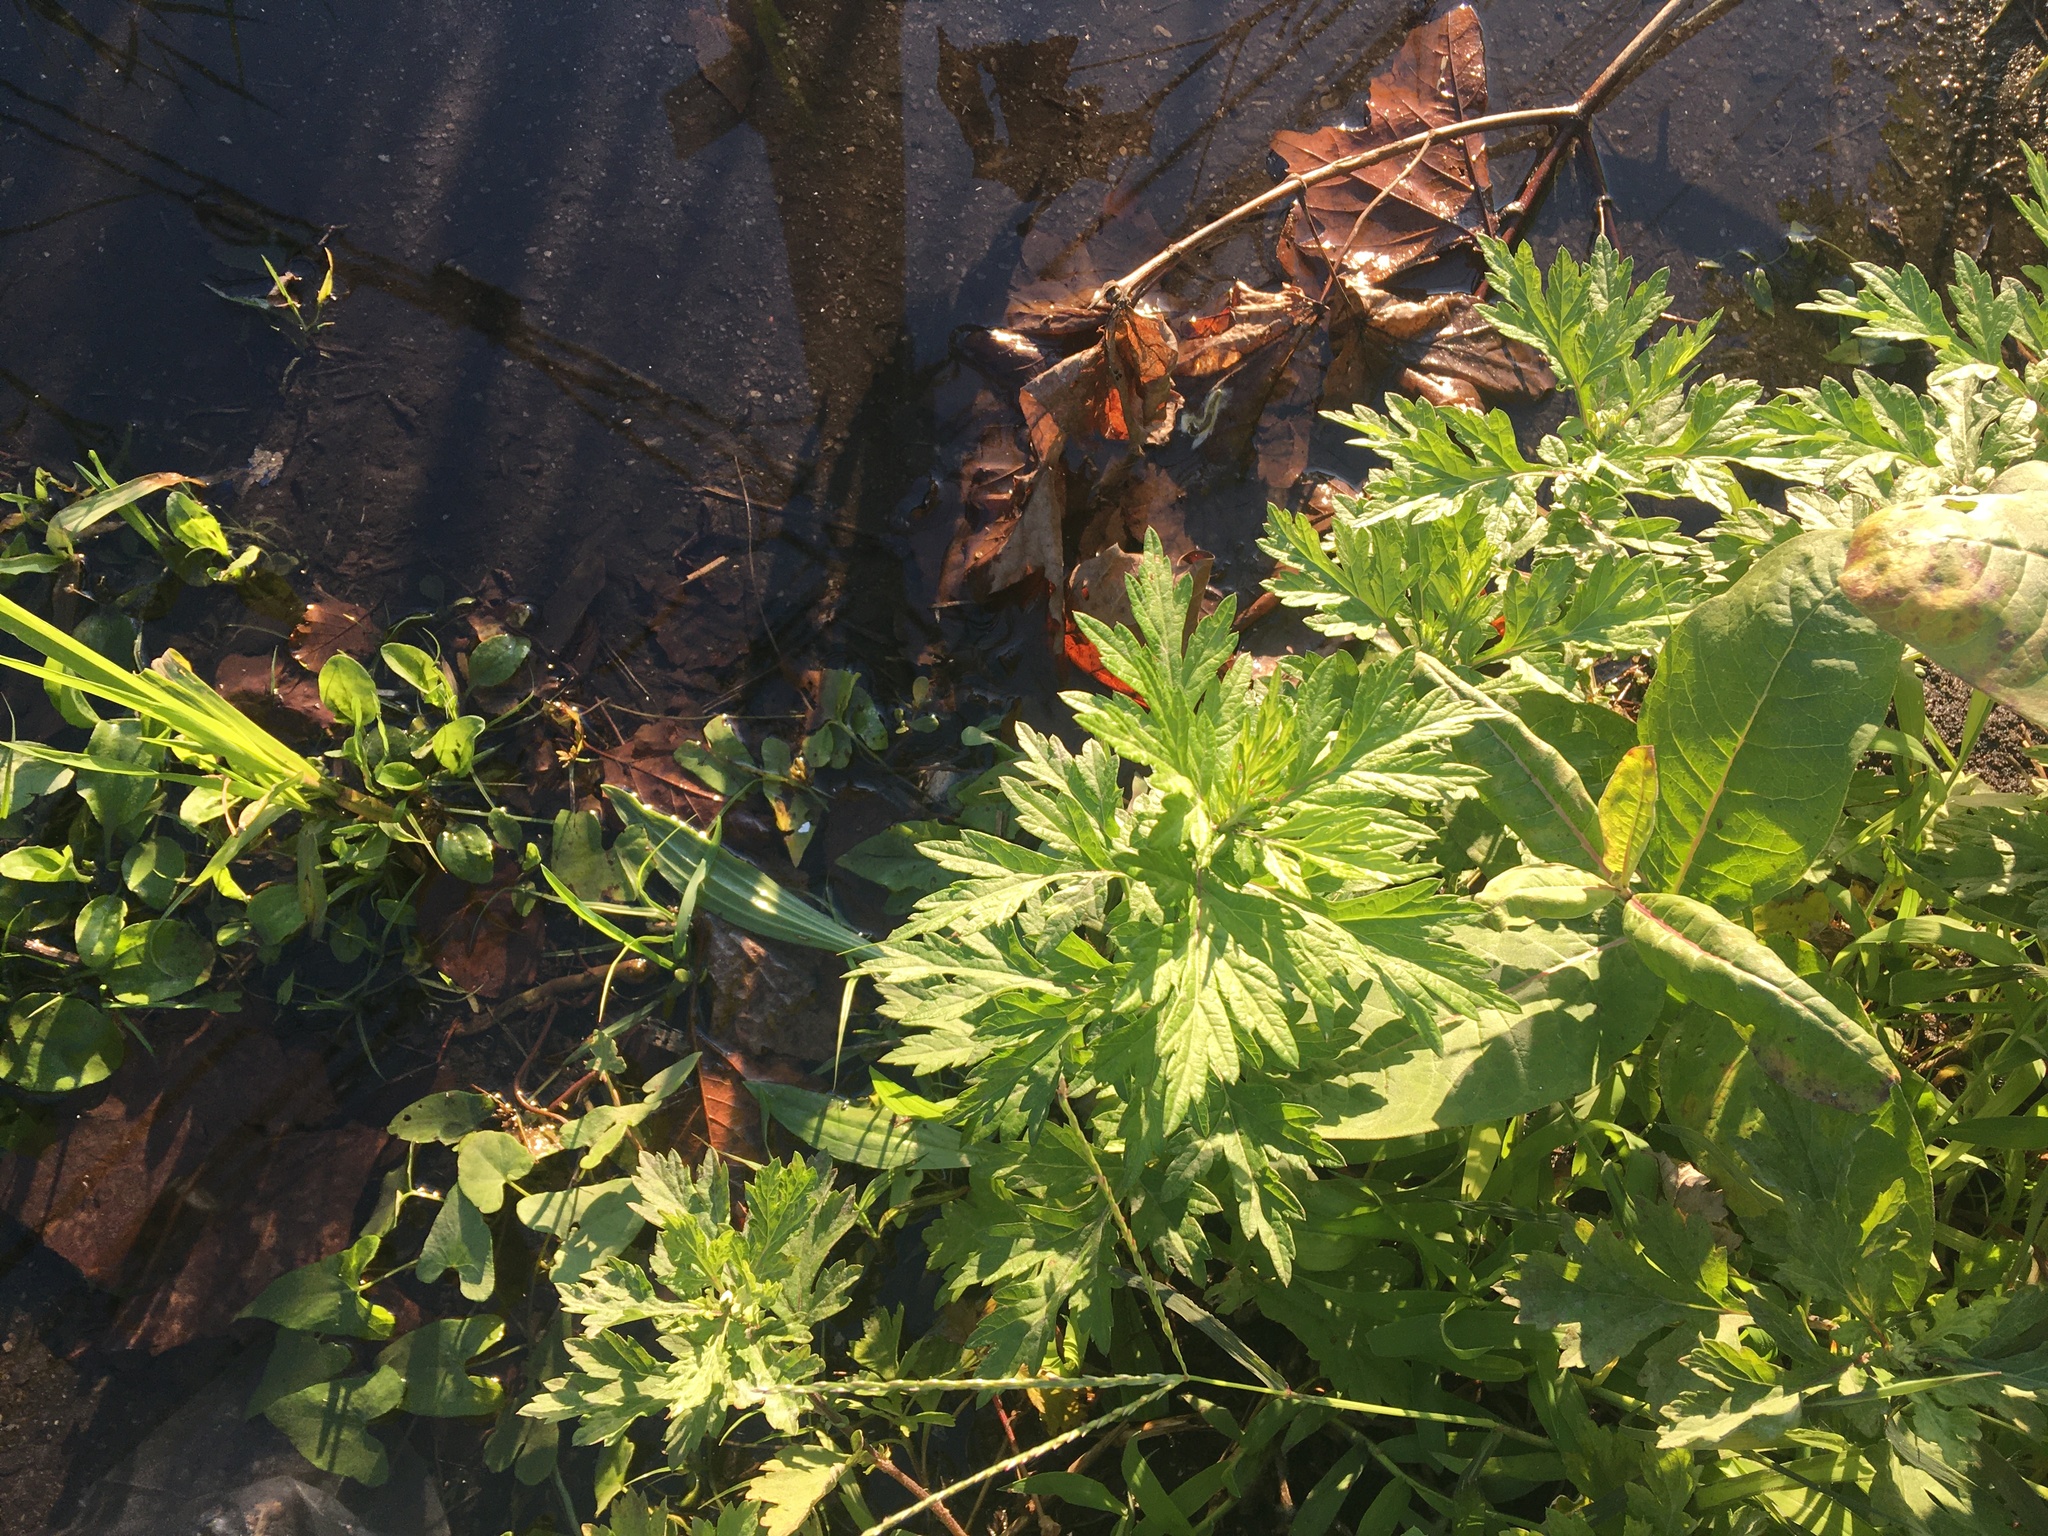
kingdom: Plantae
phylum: Tracheophyta
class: Magnoliopsida
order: Asterales
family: Asteraceae
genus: Artemisia
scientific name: Artemisia vulgaris
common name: Mugwort
